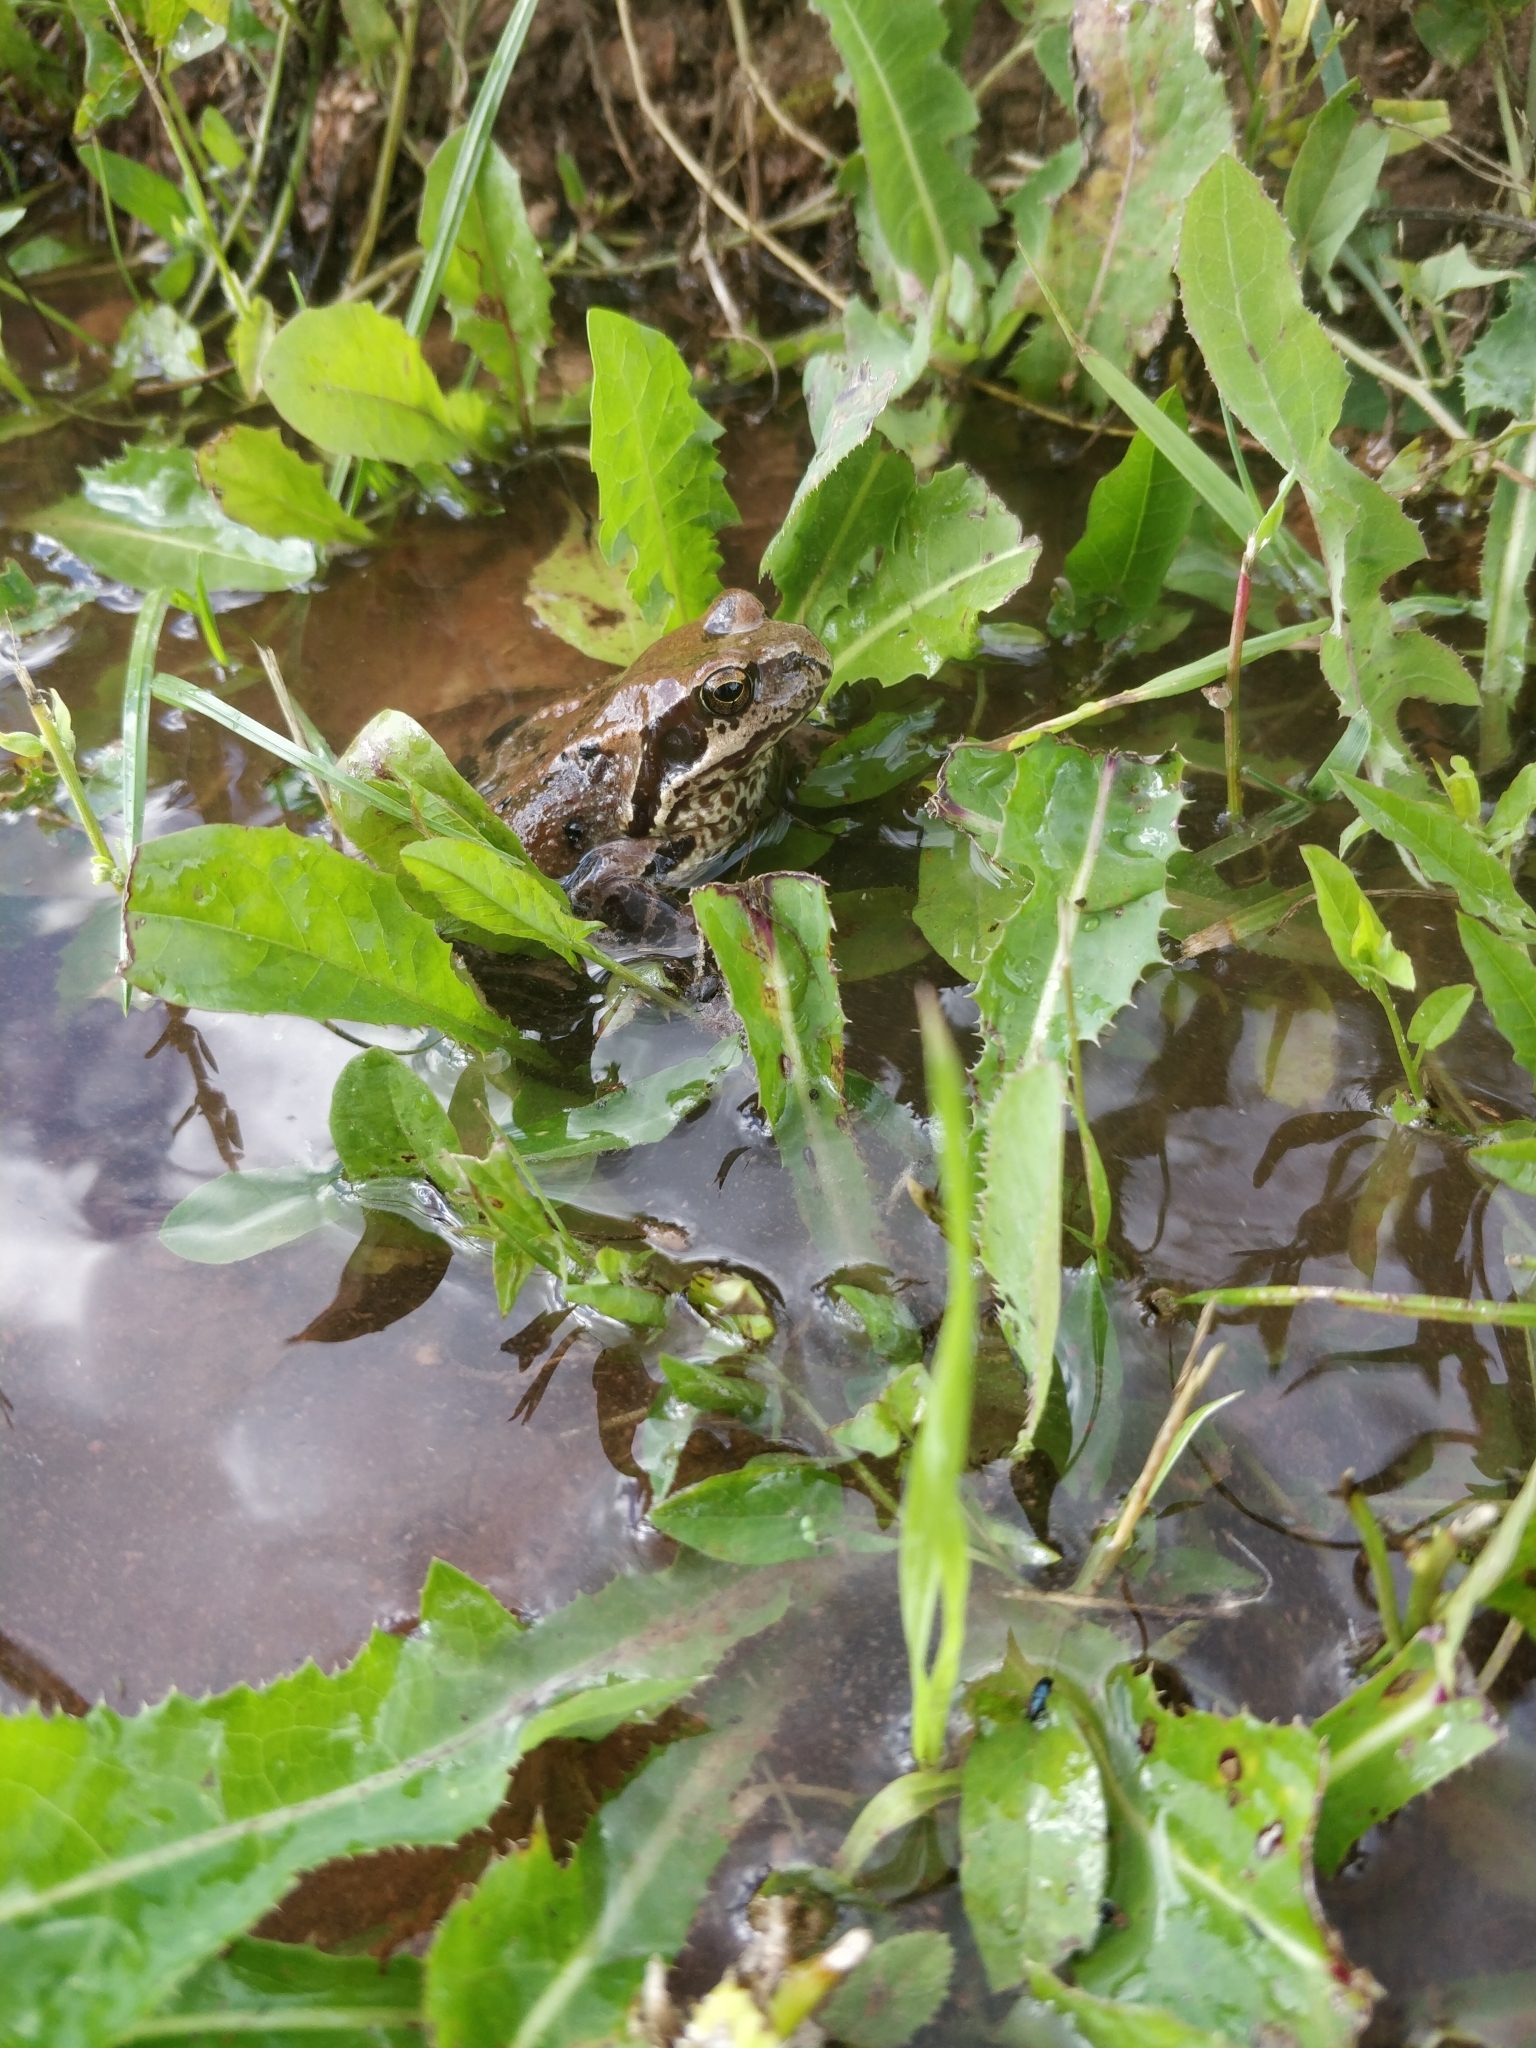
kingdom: Animalia
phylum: Chordata
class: Amphibia
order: Anura
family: Ranidae
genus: Rana
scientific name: Rana temporaria
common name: Common frog
